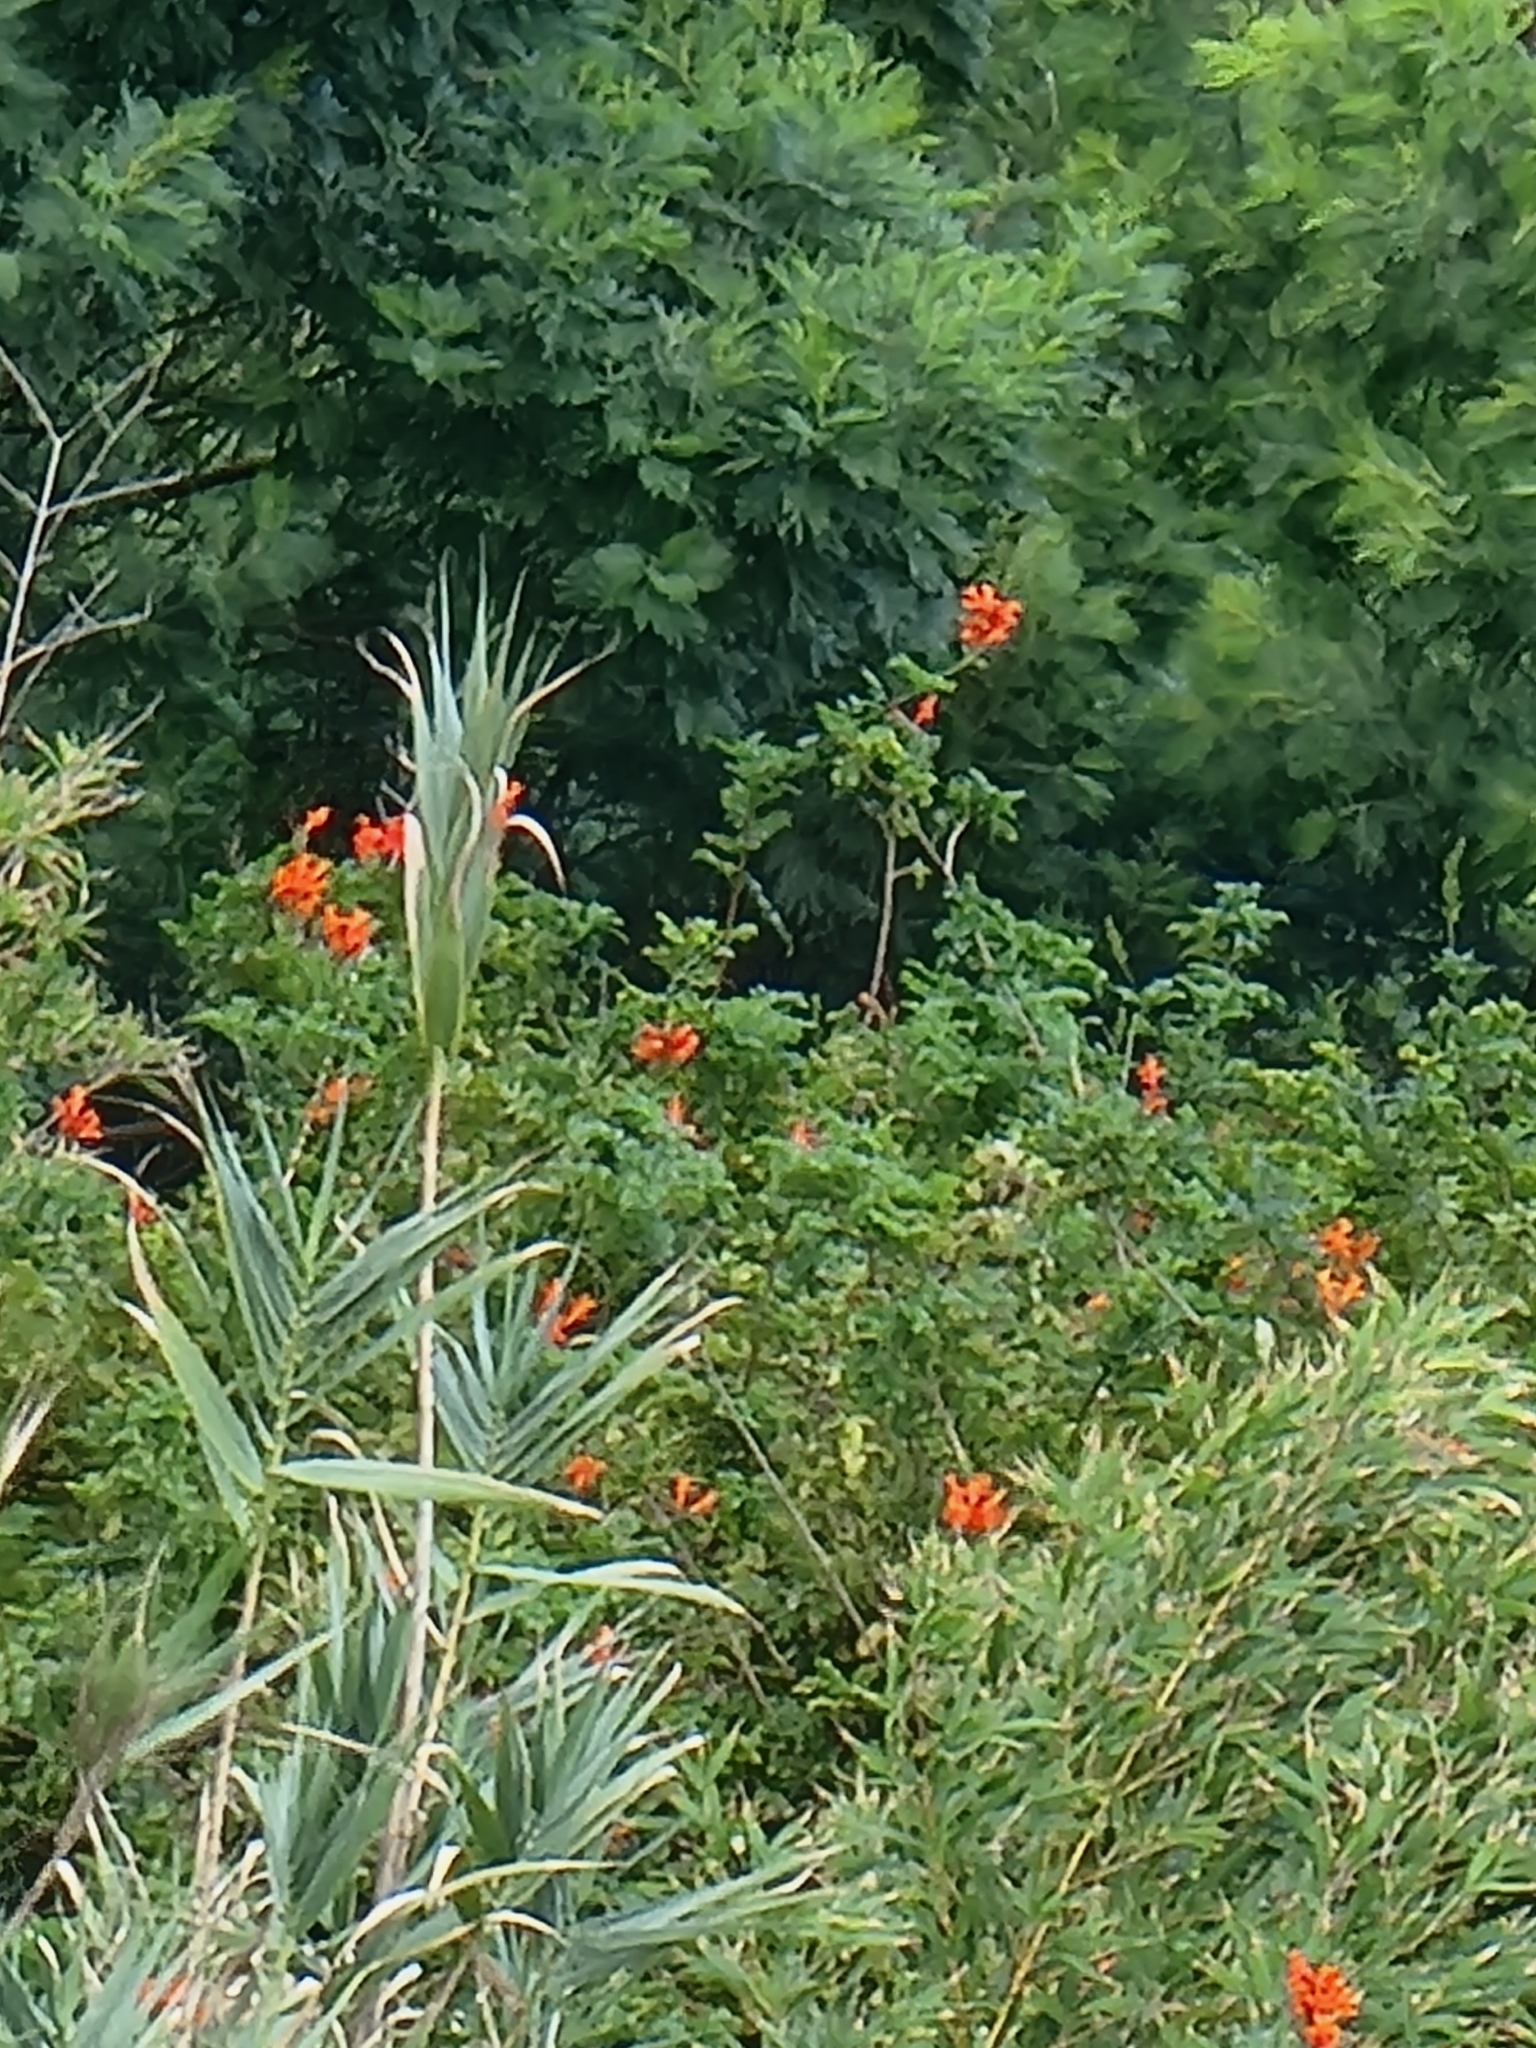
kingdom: Plantae
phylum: Tracheophyta
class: Magnoliopsida
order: Lamiales
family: Bignoniaceae
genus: Tecomaria
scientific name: Tecomaria capensis
